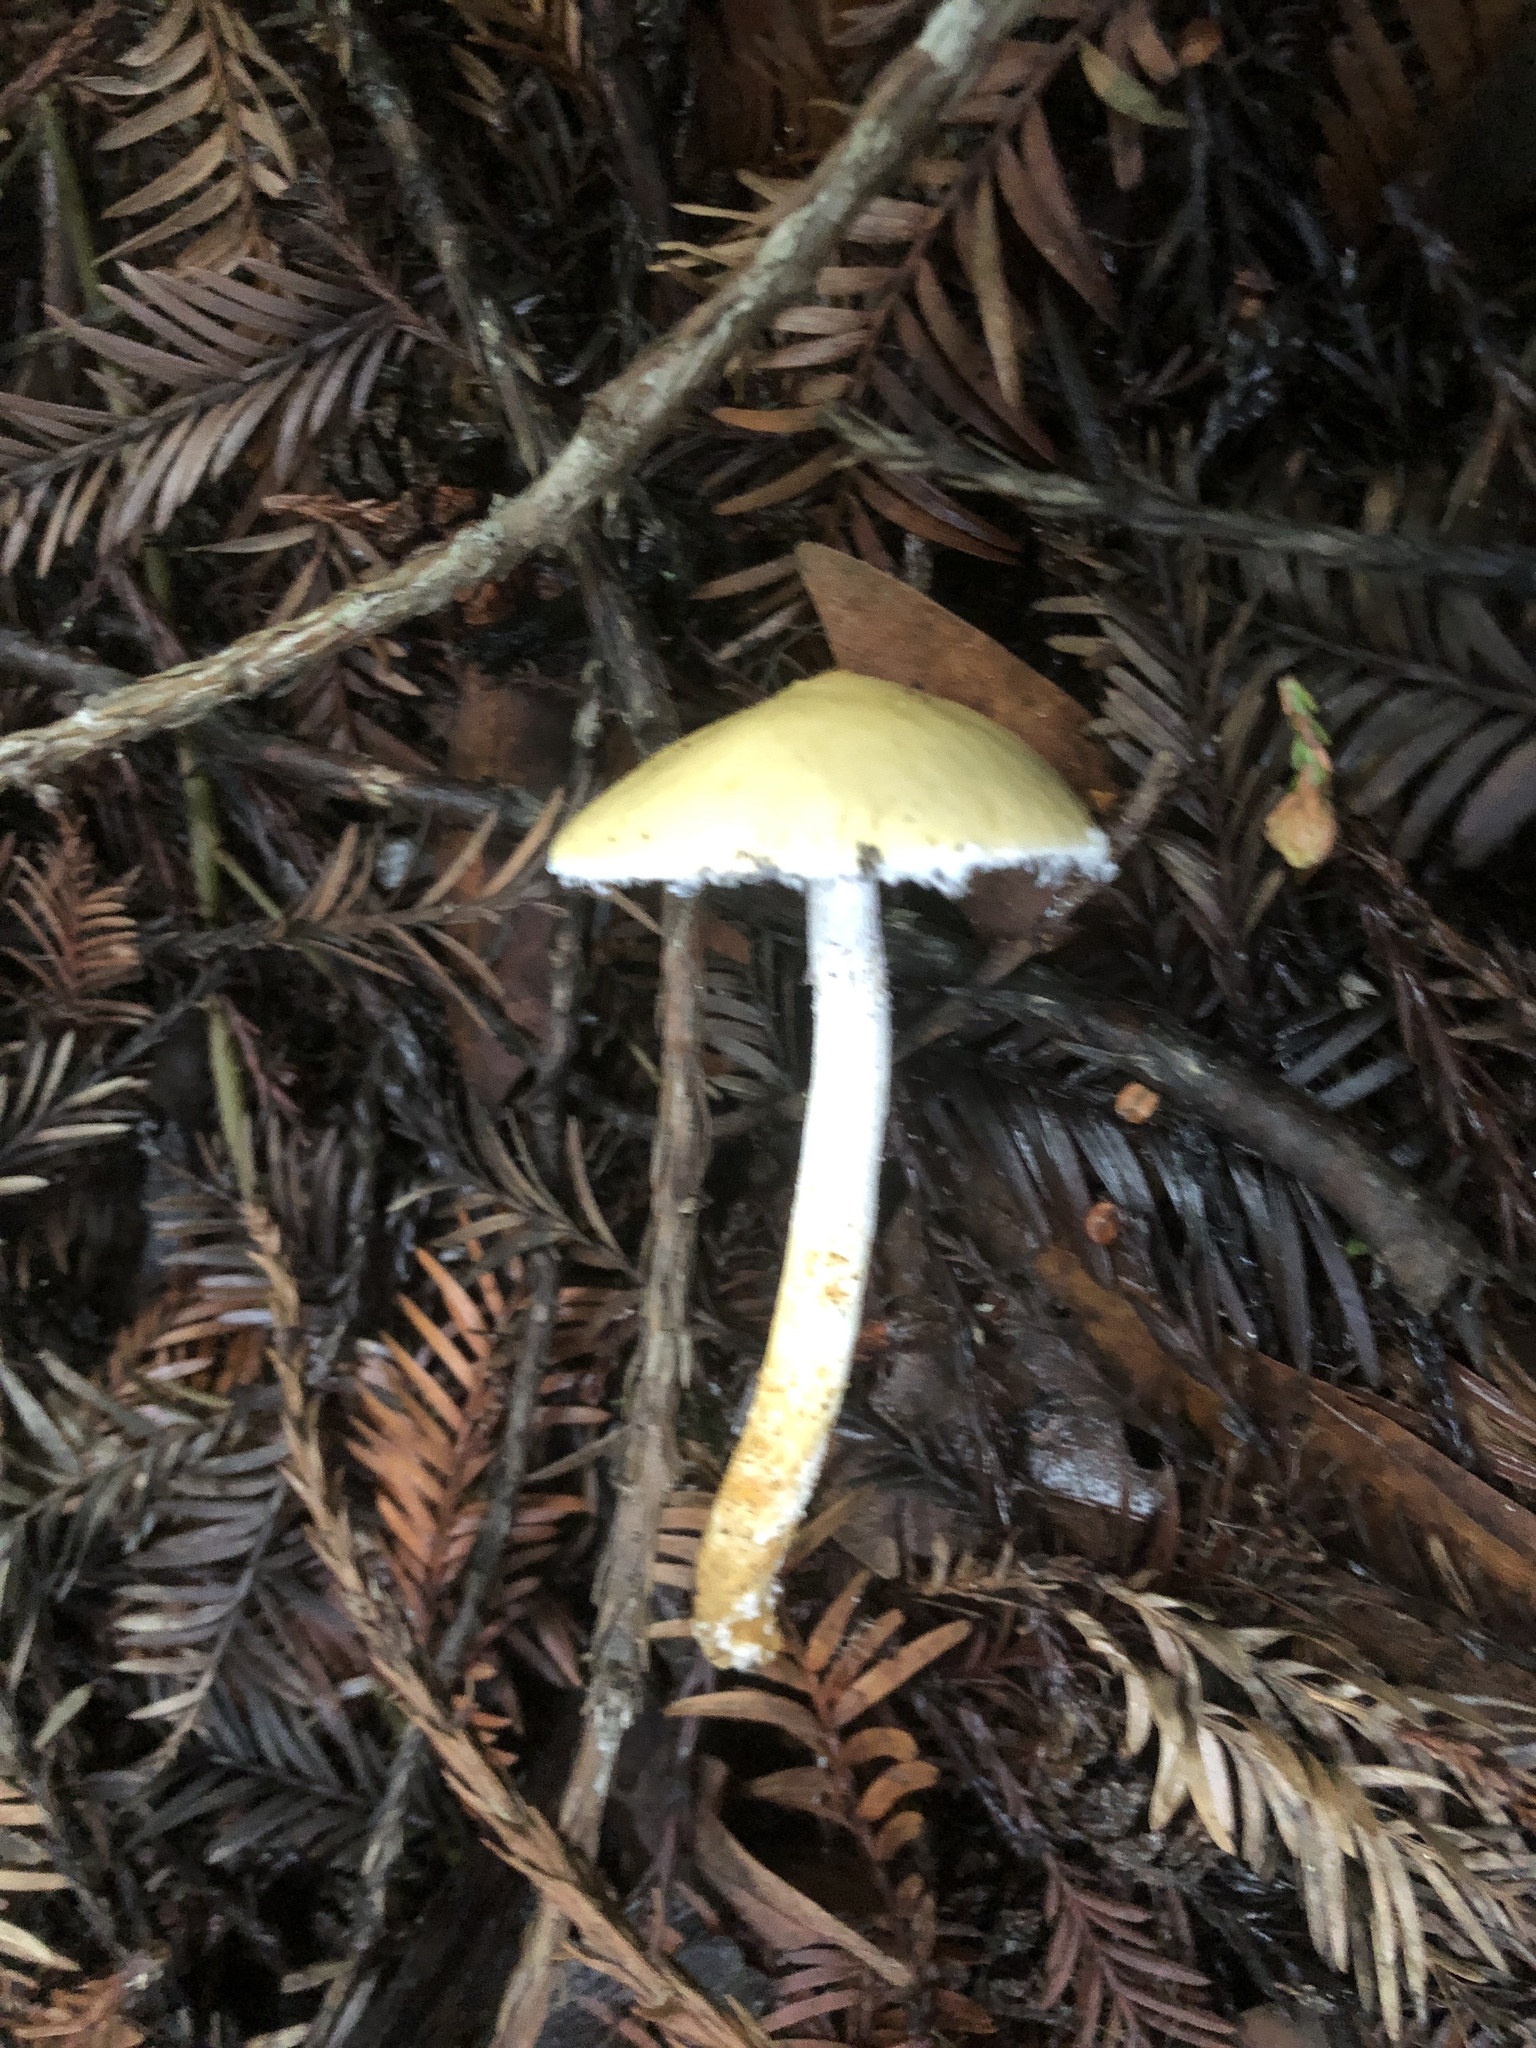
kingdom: Fungi
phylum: Basidiomycota
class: Agaricomycetes
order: Agaricales
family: Strophariaceae
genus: Stropharia
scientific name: Stropharia ambigua
